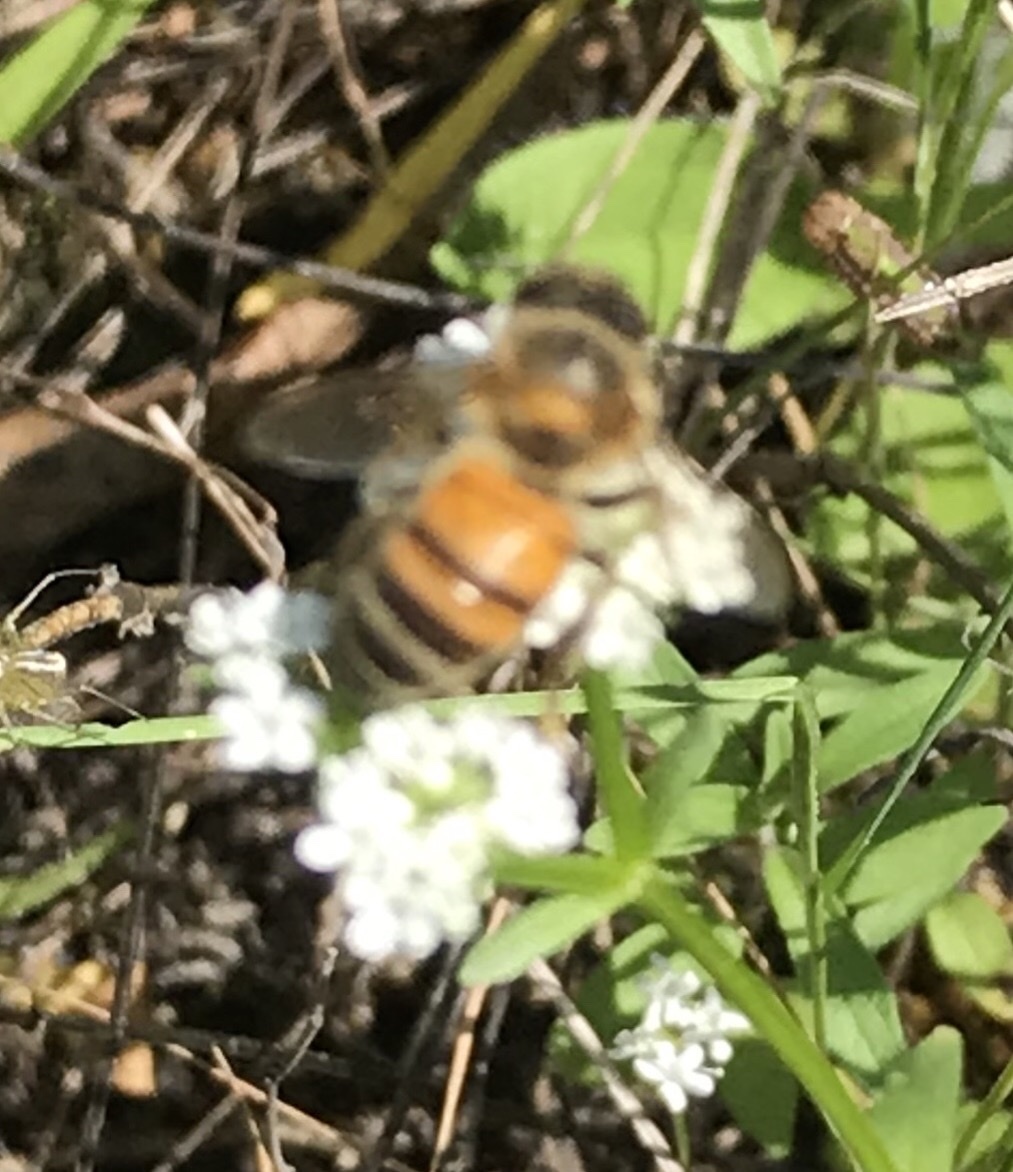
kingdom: Animalia
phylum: Arthropoda
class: Insecta
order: Hymenoptera
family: Apidae
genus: Apis
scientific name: Apis mellifera
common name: Honey bee
